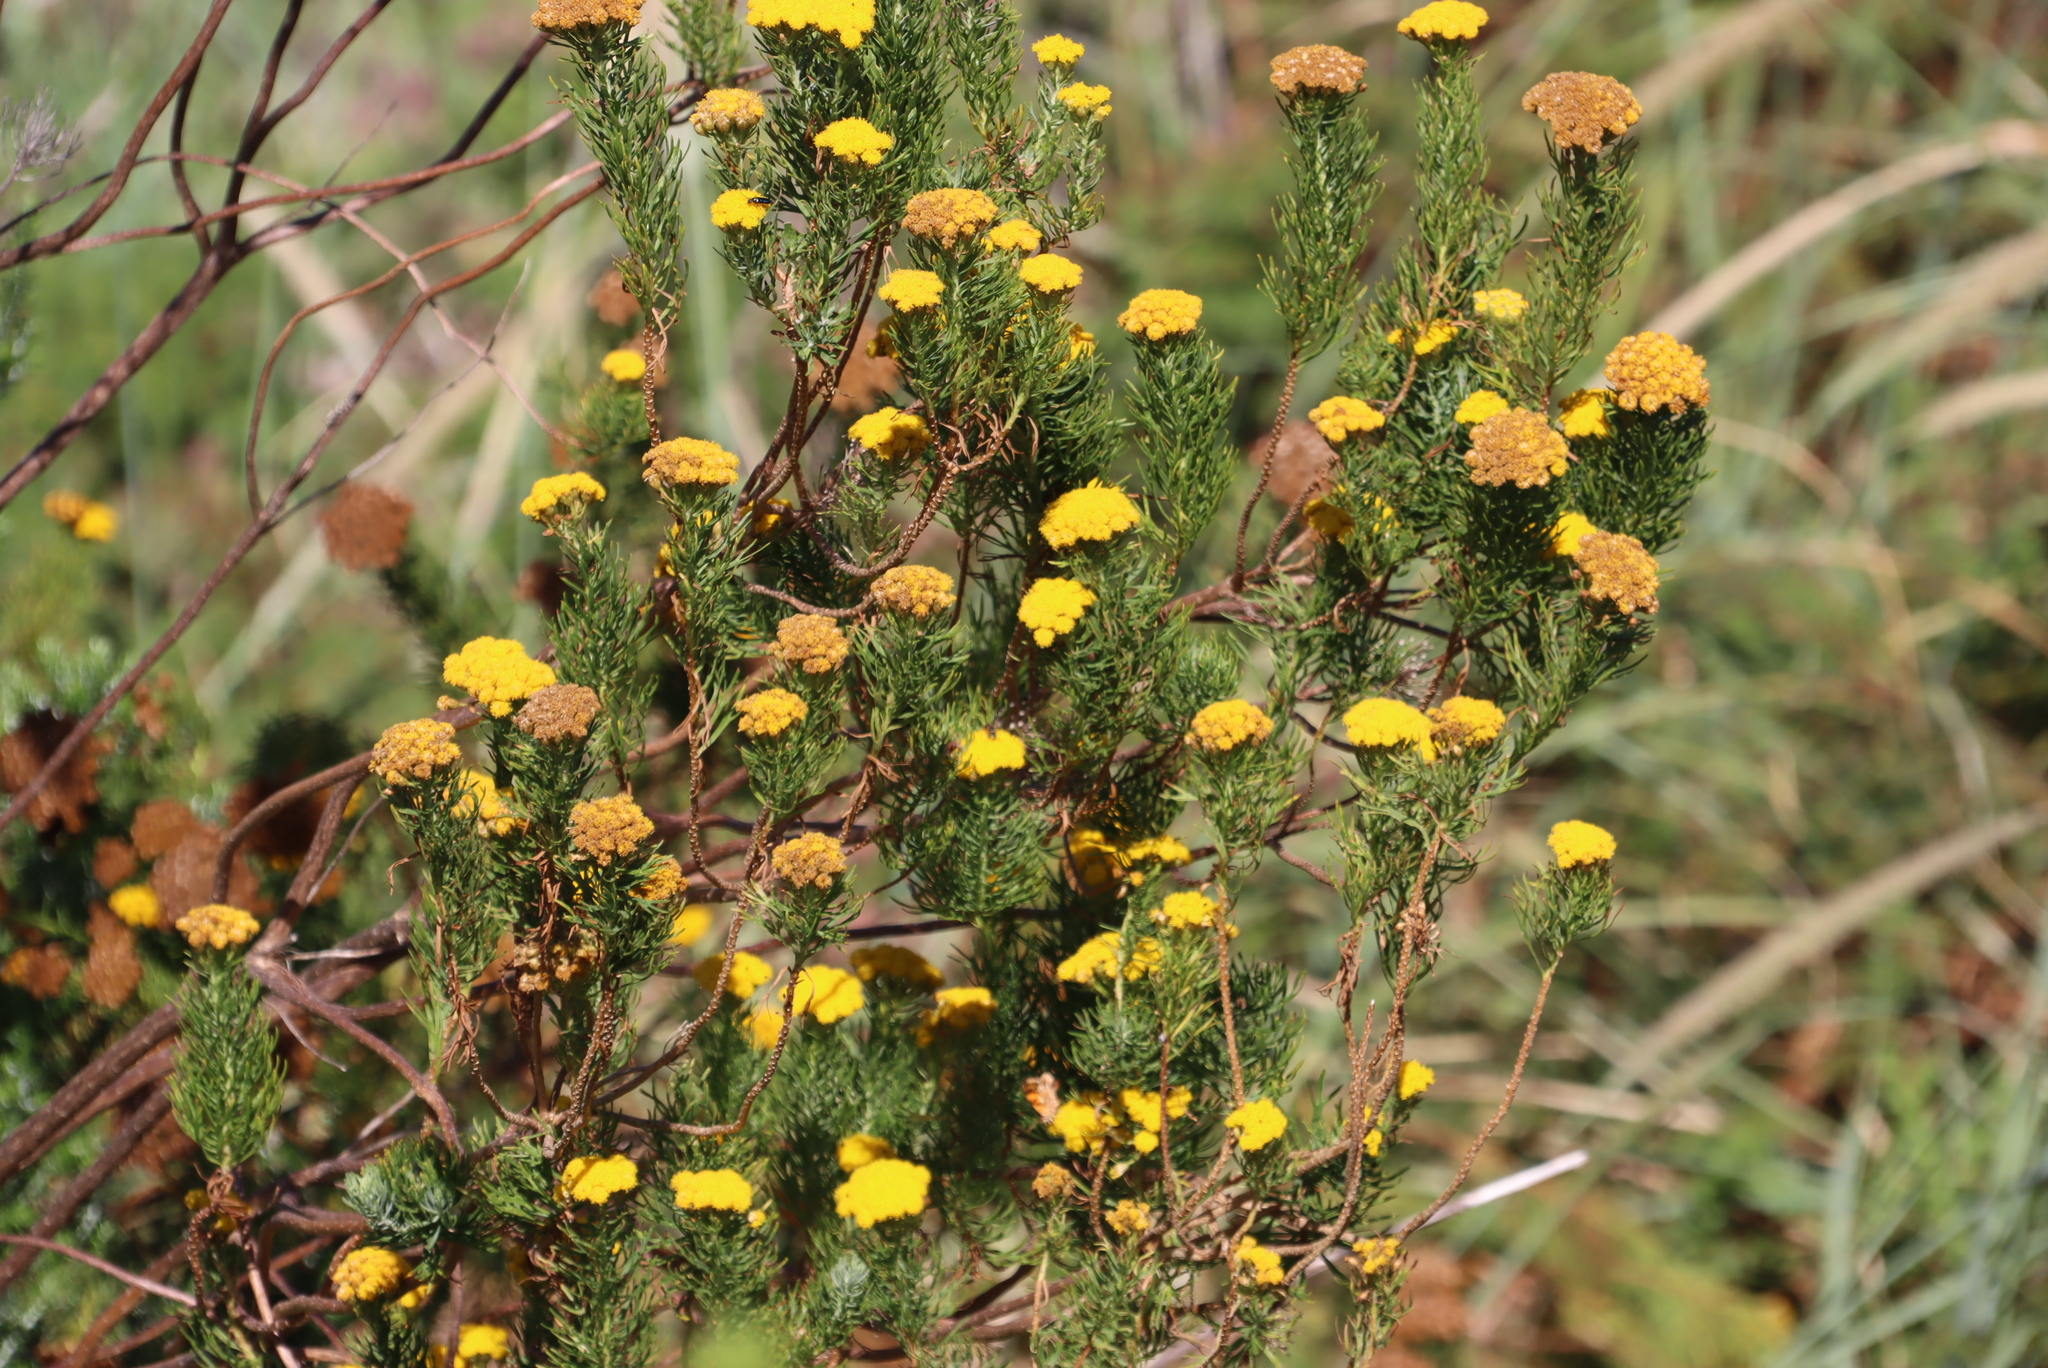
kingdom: Plantae
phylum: Tracheophyta
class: Magnoliopsida
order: Asterales
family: Asteraceae
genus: Athanasia
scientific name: Athanasia crithmifolia
